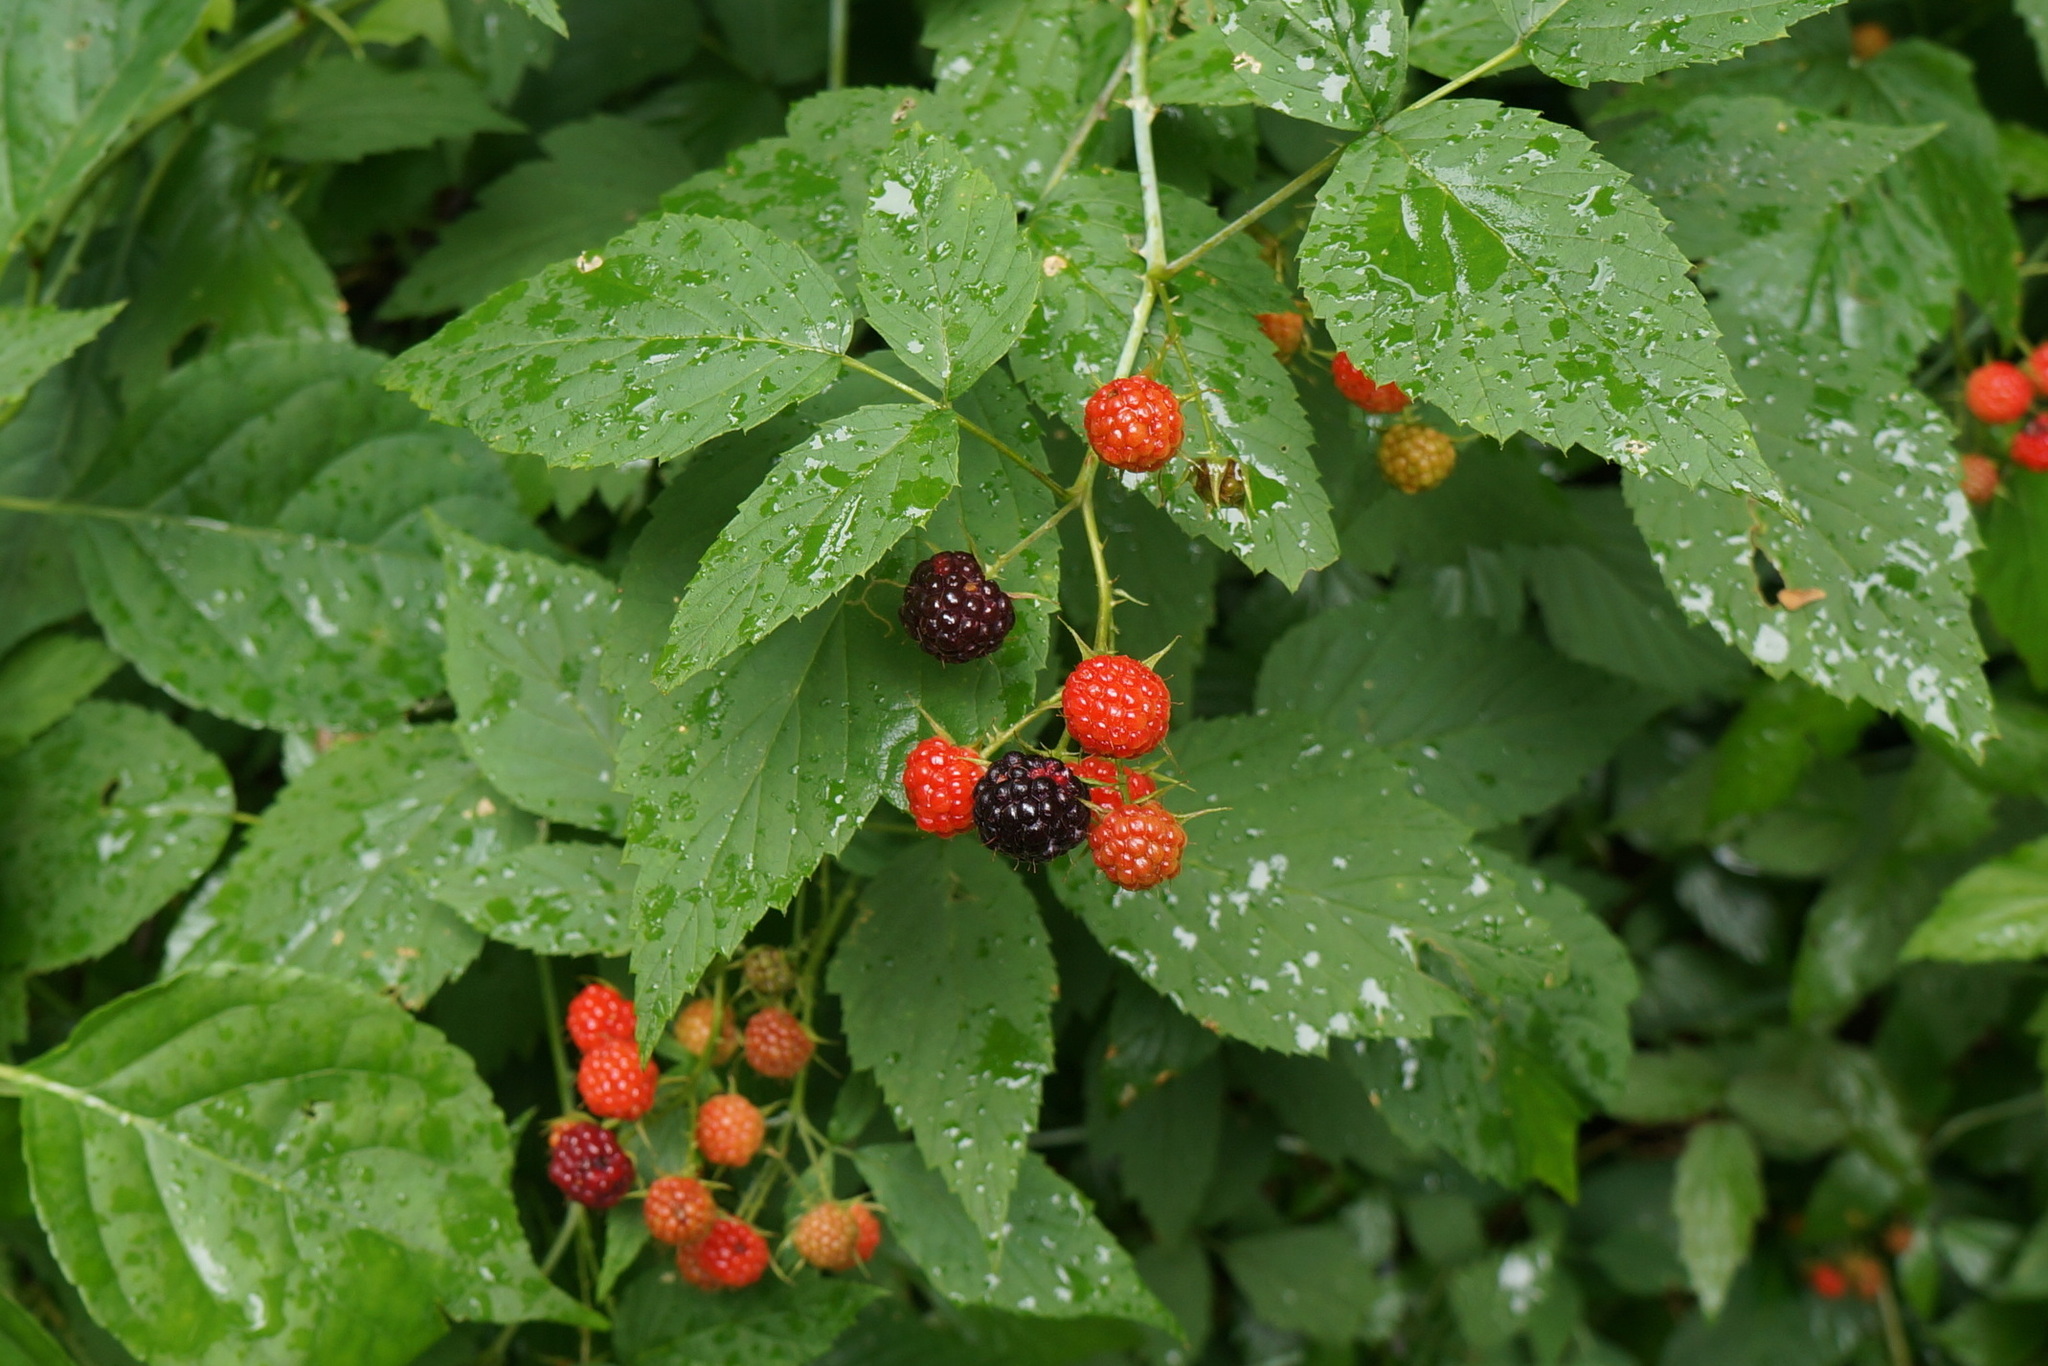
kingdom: Plantae
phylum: Tracheophyta
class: Magnoliopsida
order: Rosales
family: Rosaceae
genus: Rubus
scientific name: Rubus occidentalis
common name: Black raspberry
